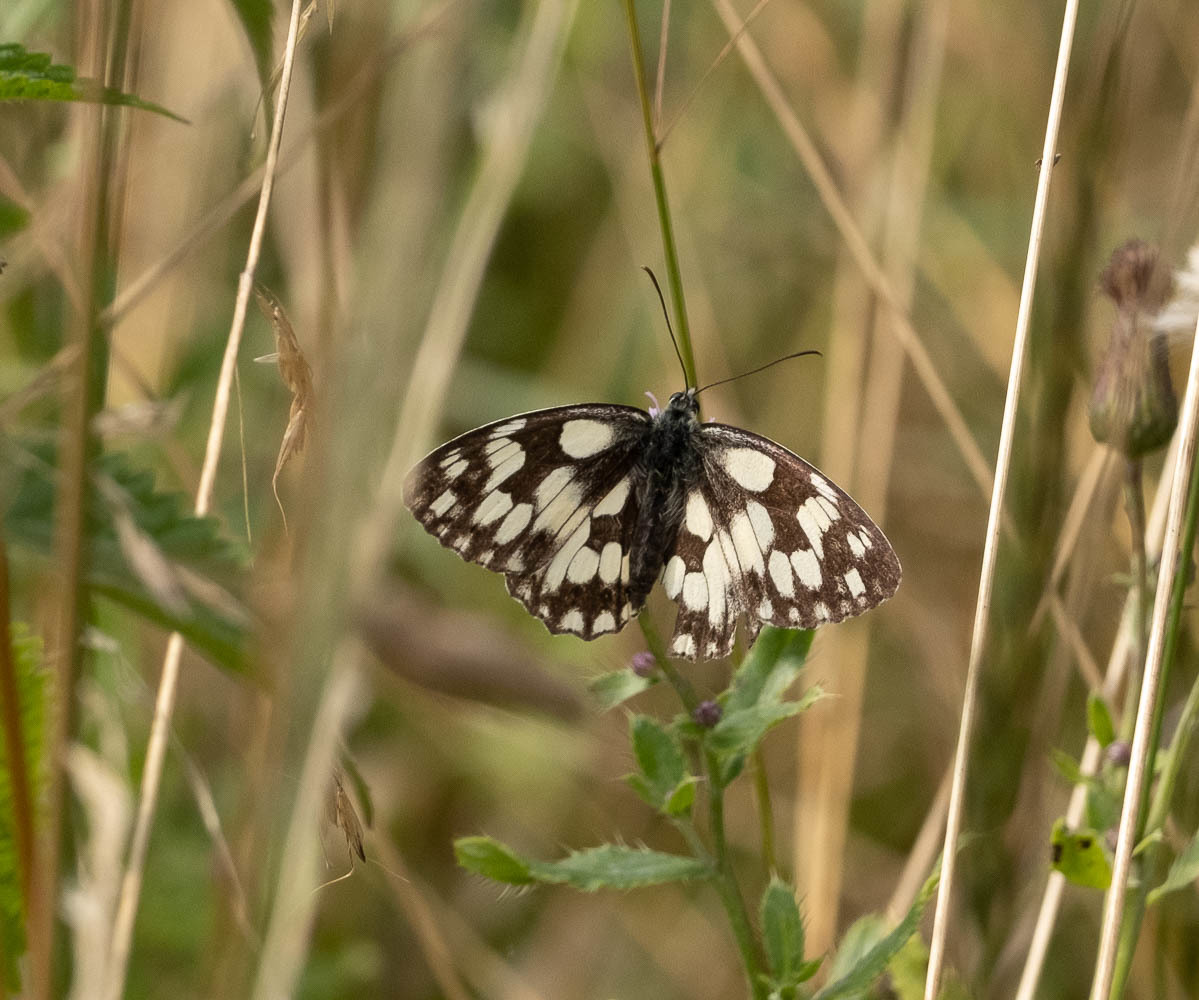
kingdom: Animalia
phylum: Arthropoda
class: Insecta
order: Lepidoptera
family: Nymphalidae
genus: Melanargia
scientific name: Melanargia galathea
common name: Marbled white
